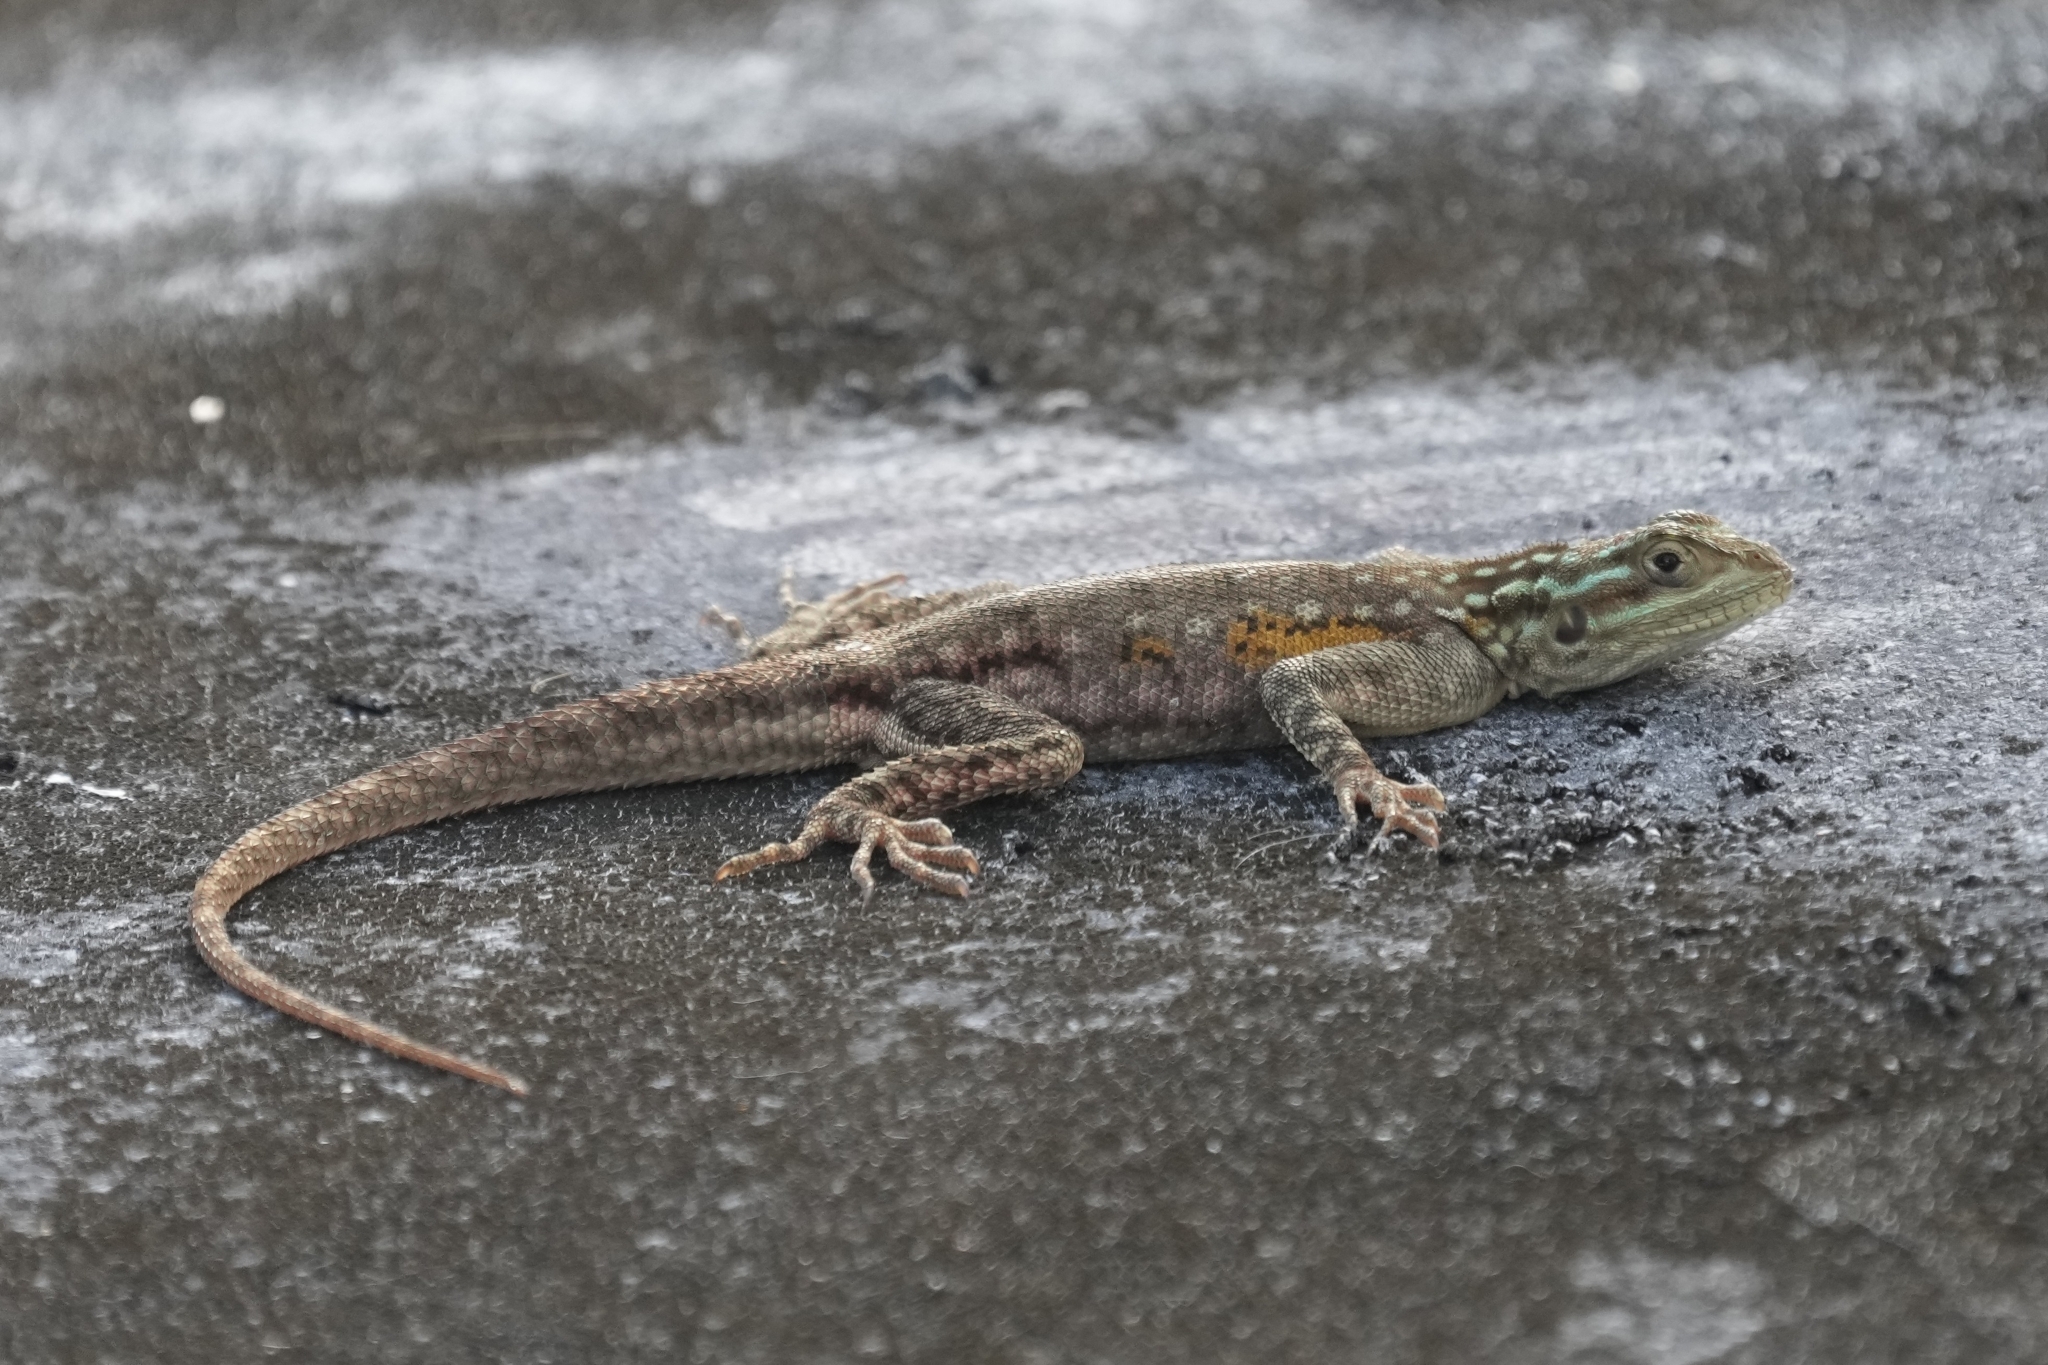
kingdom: Animalia
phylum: Chordata
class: Squamata
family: Agamidae
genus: Agama
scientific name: Agama picticauda
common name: Red-headed agama
